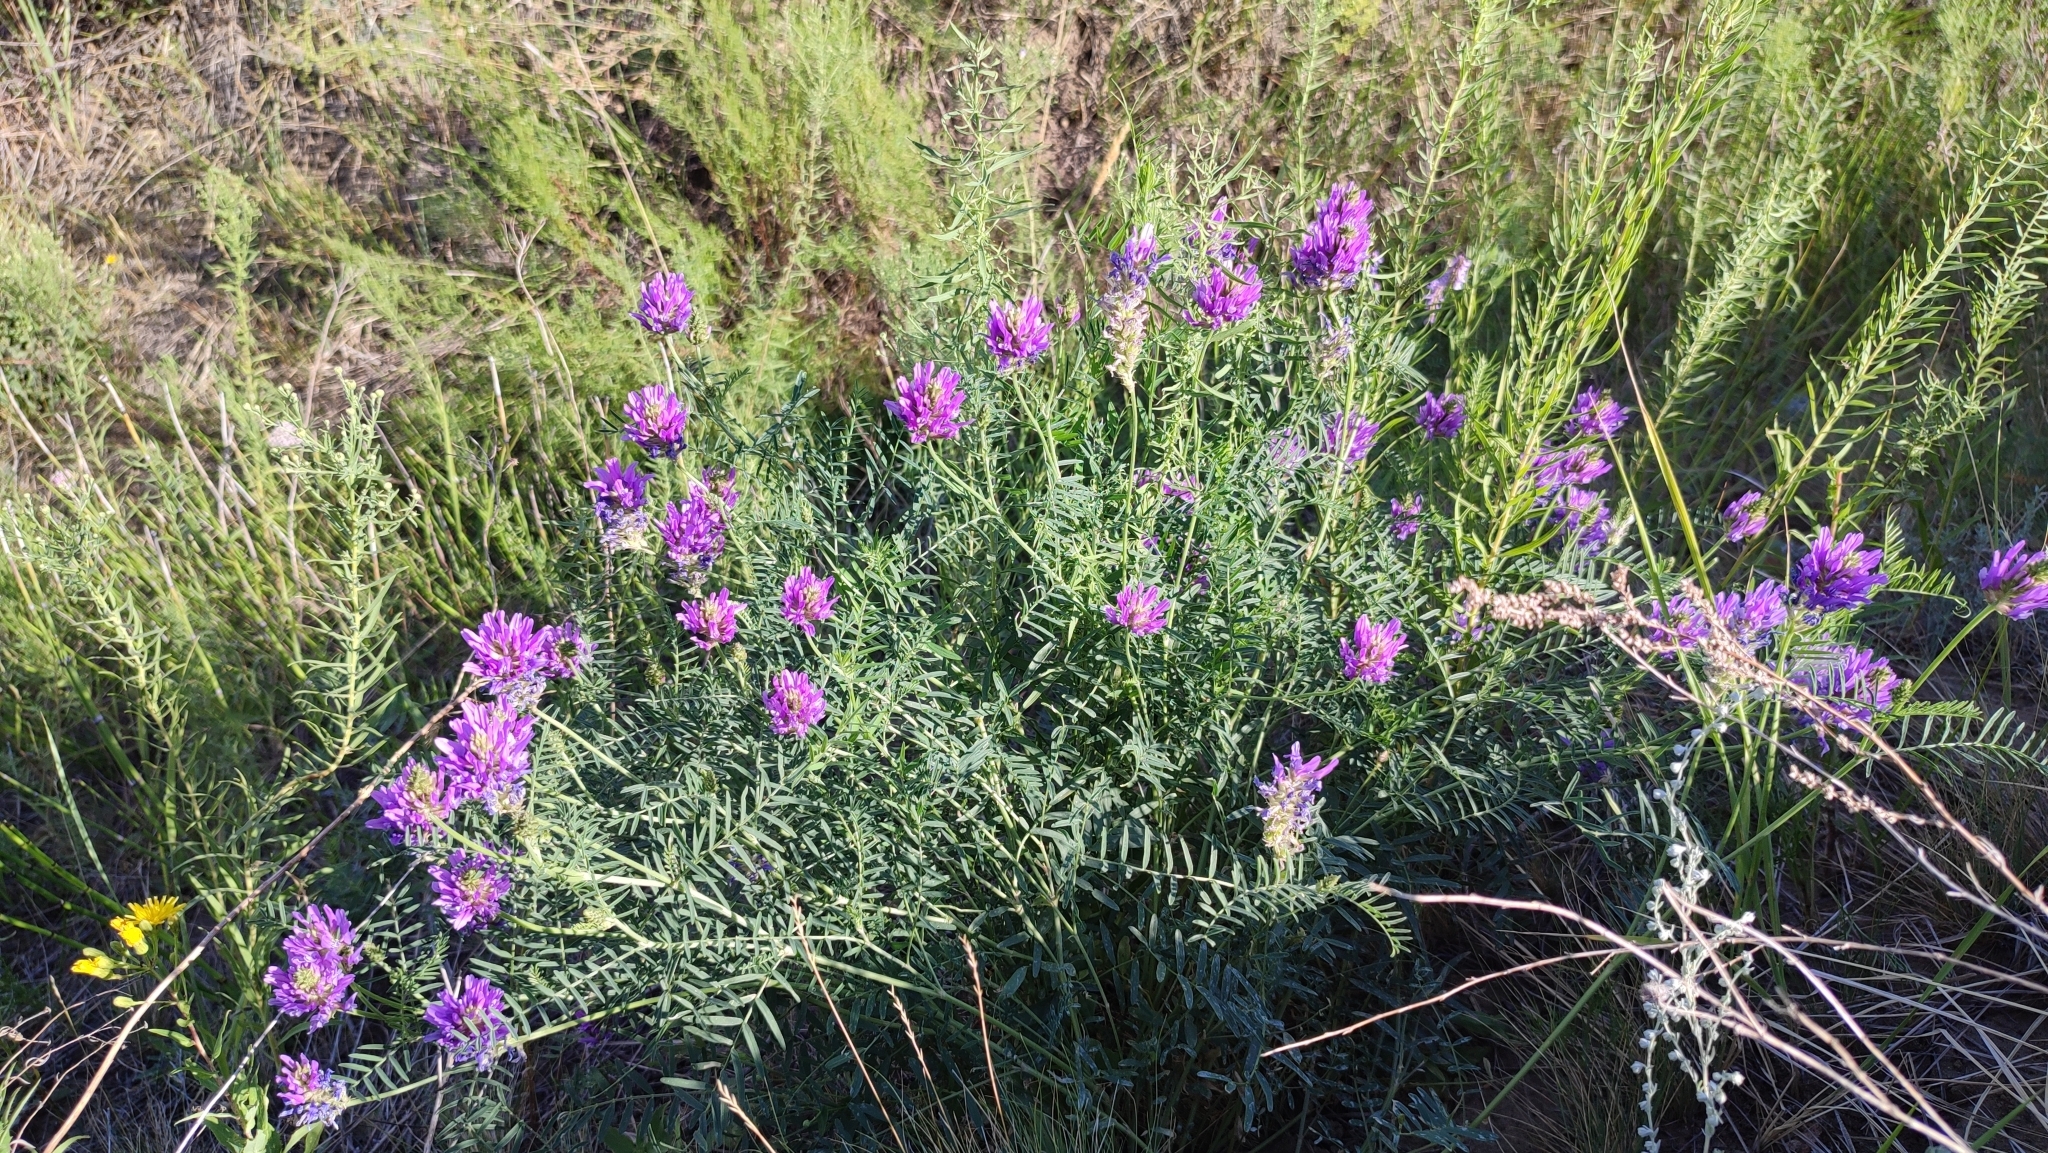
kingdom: Plantae
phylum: Tracheophyta
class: Magnoliopsida
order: Fabales
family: Fabaceae
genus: Astragalus
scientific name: Astragalus onobrychis
